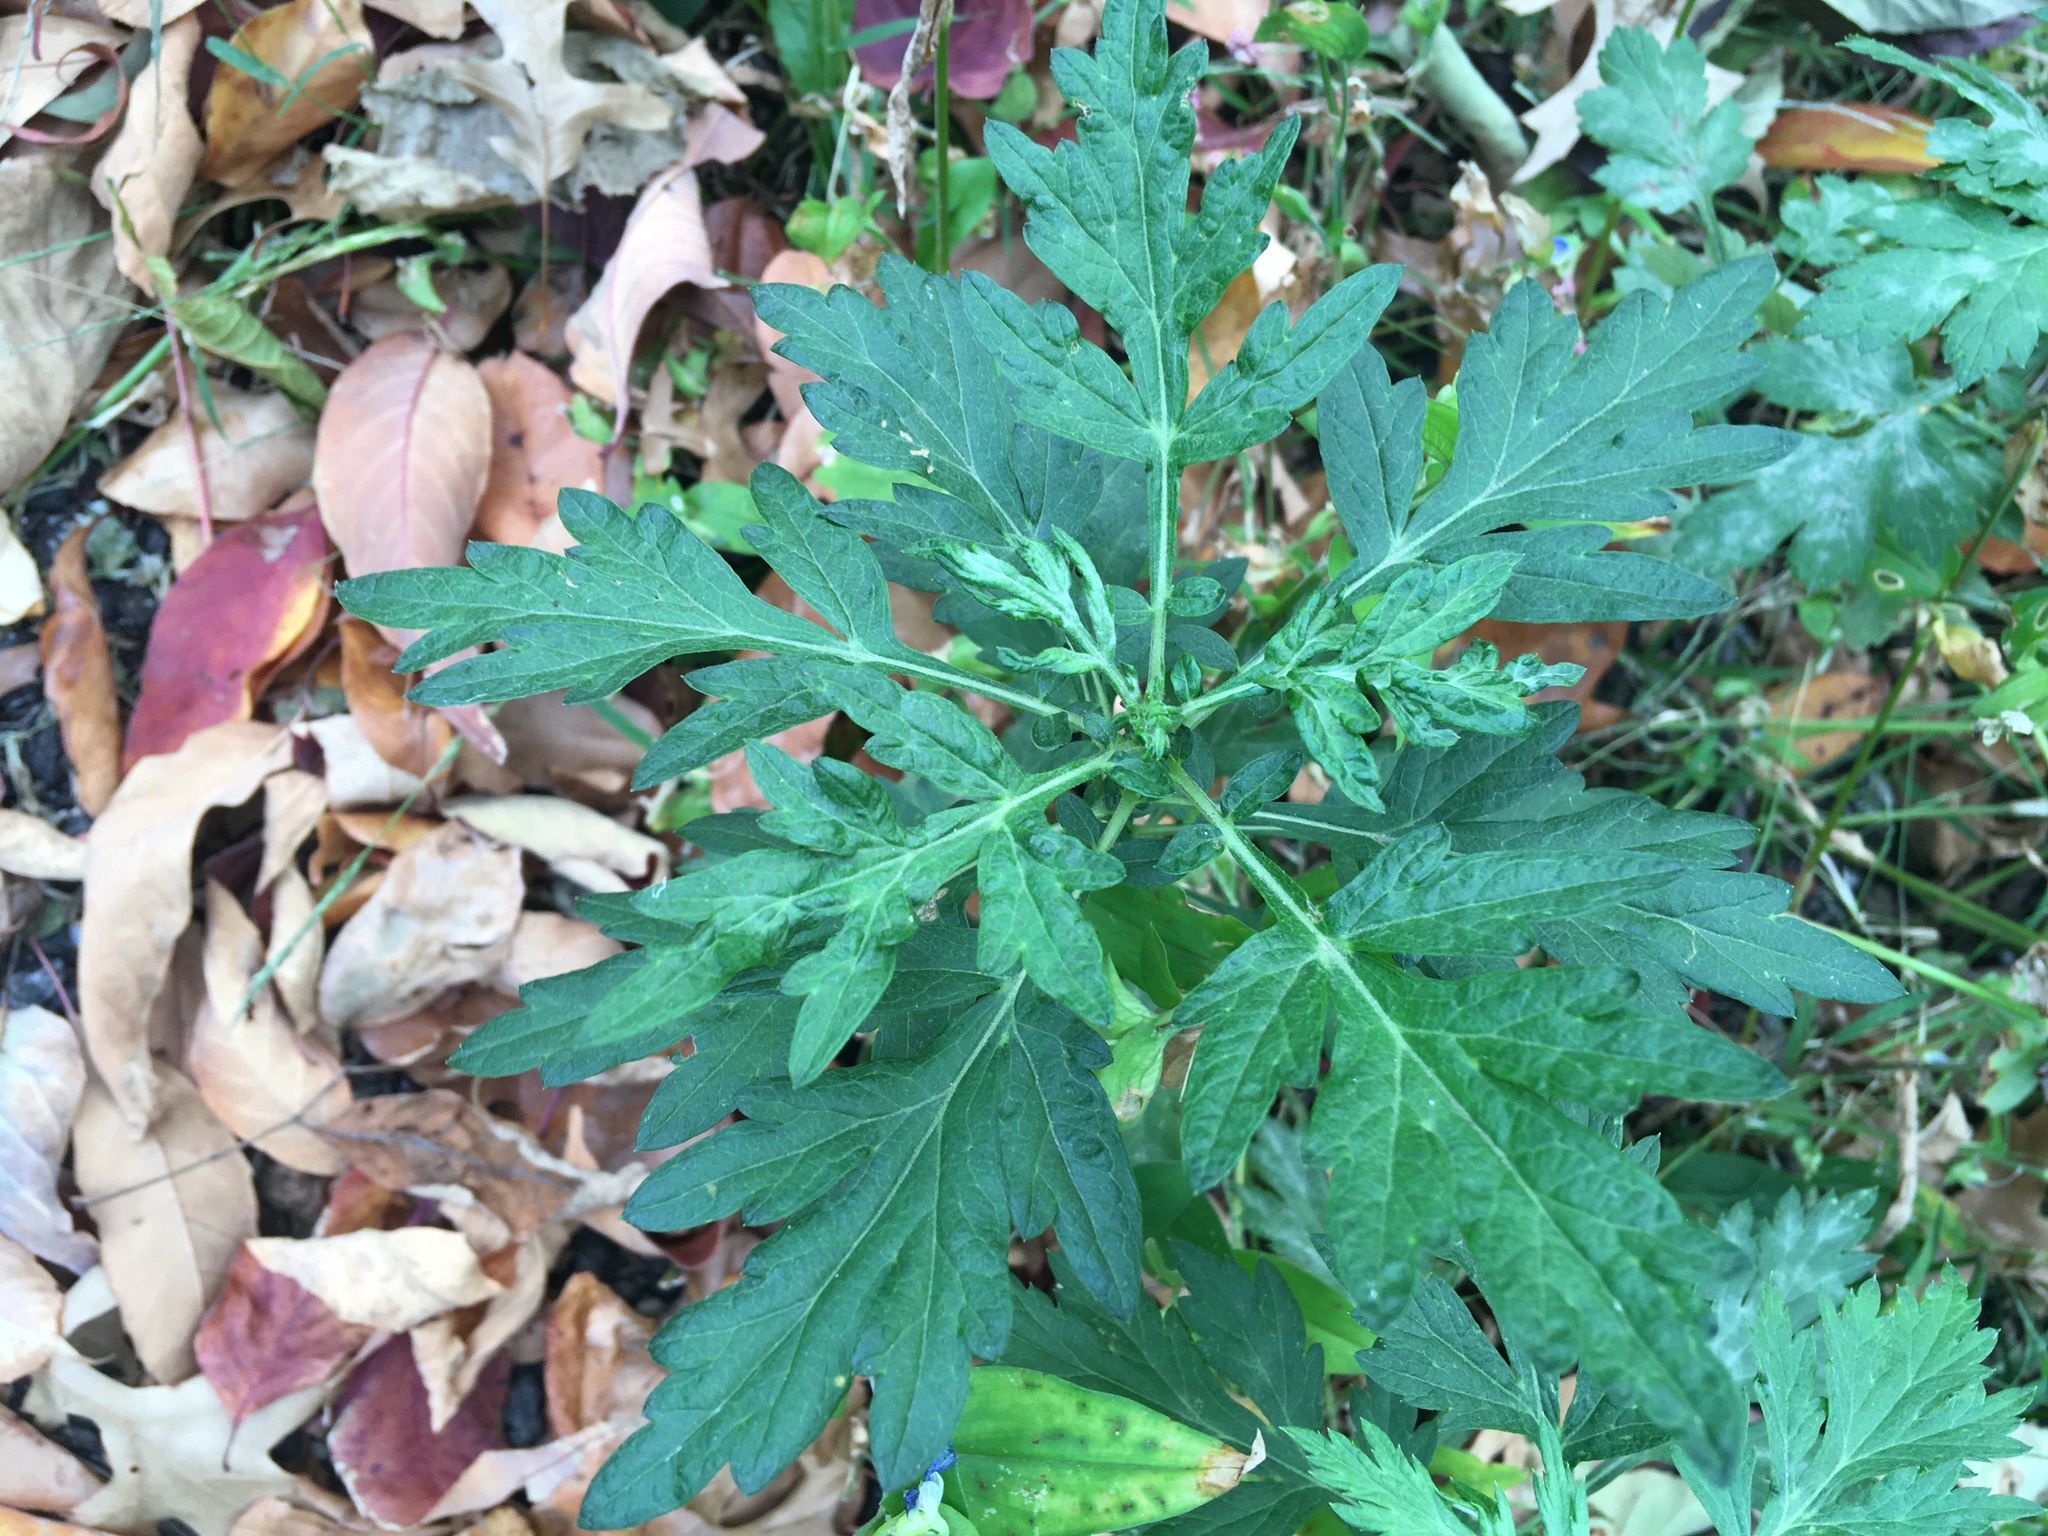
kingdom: Plantae
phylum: Tracheophyta
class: Magnoliopsida
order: Asterales
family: Asteraceae
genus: Artemisia
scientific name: Artemisia vulgaris
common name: Mugwort
